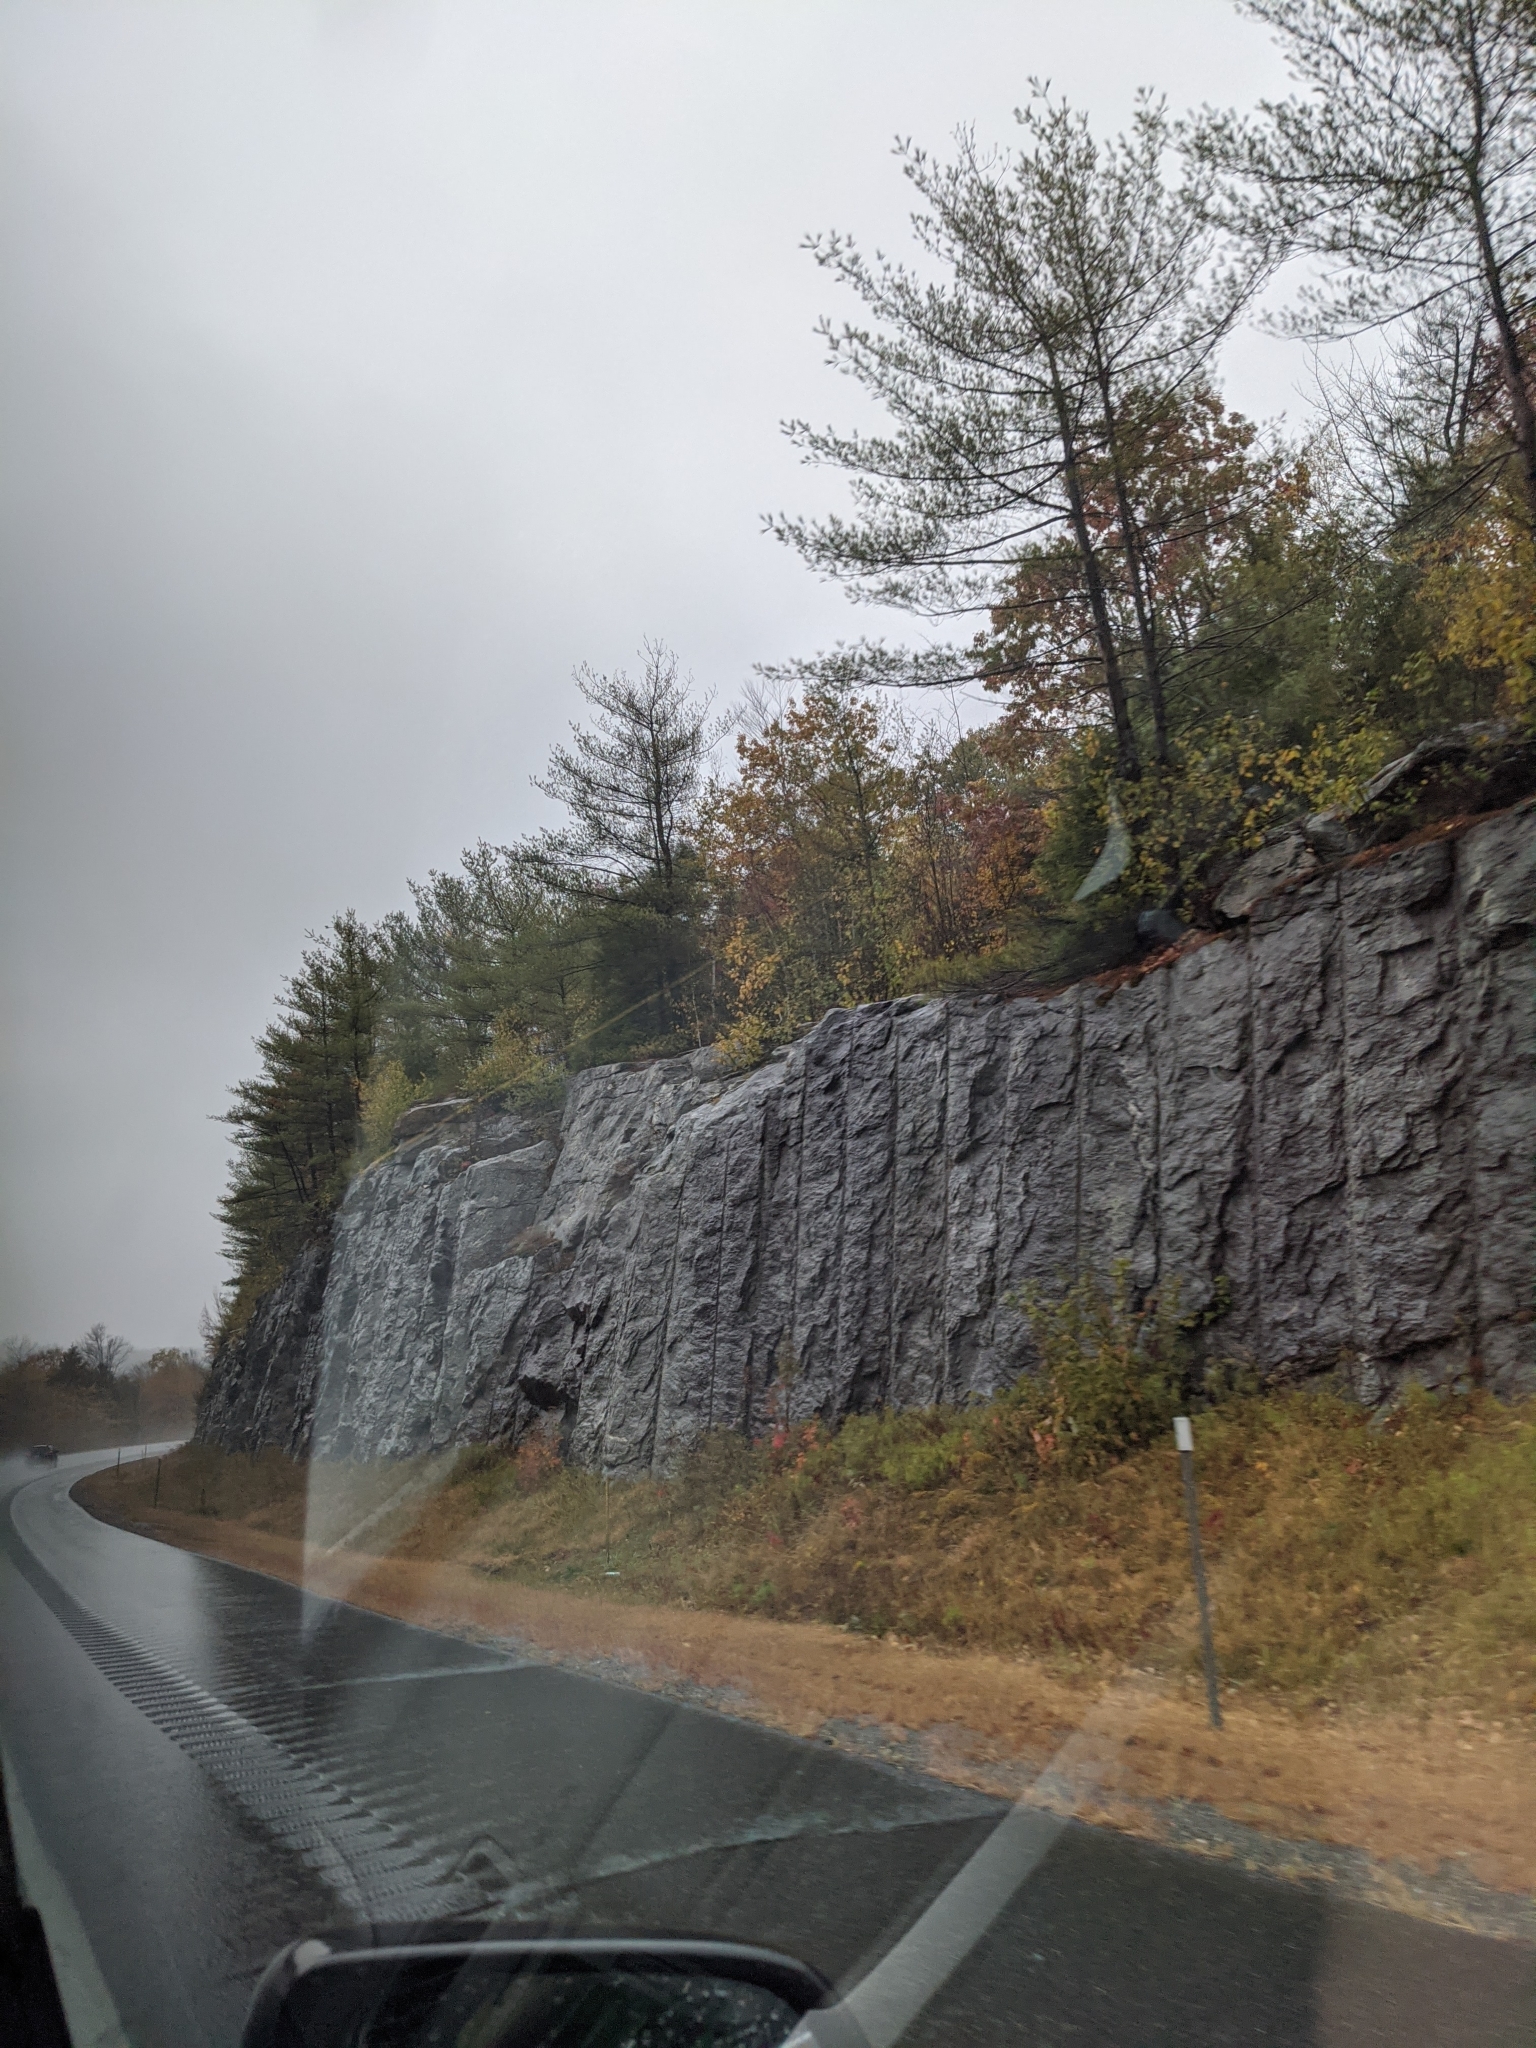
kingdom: Plantae
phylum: Tracheophyta
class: Pinopsida
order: Pinales
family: Pinaceae
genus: Pinus
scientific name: Pinus strobus
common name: Weymouth pine
